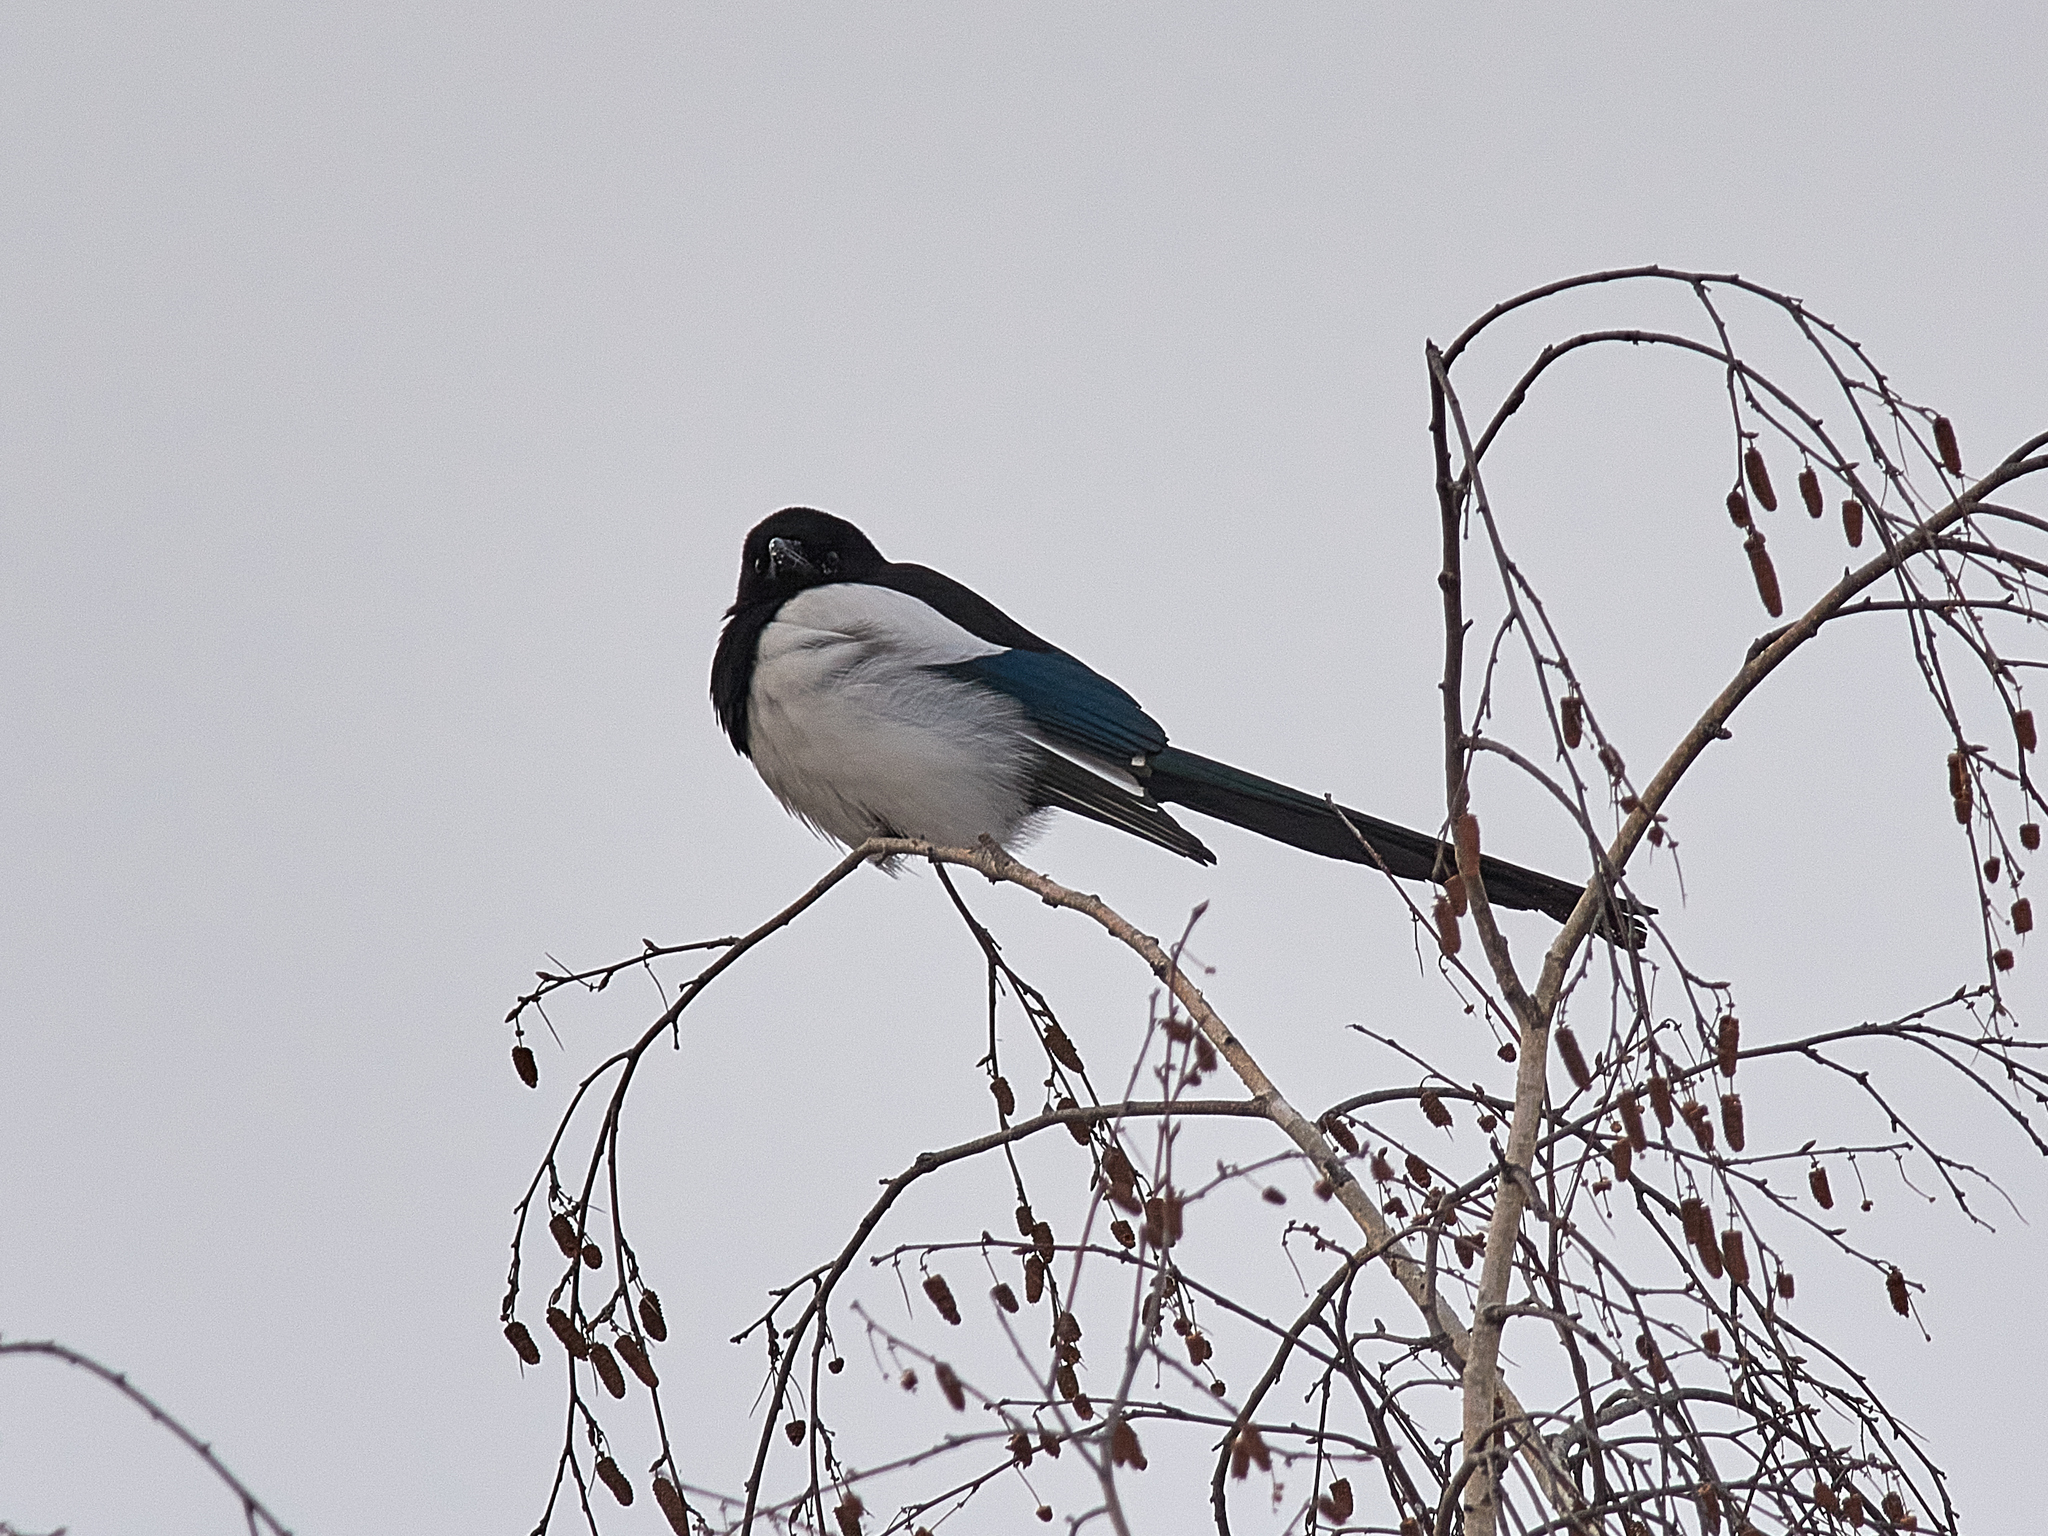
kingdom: Animalia
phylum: Chordata
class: Aves
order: Passeriformes
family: Corvidae
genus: Pica
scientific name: Pica pica
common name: Eurasian magpie
